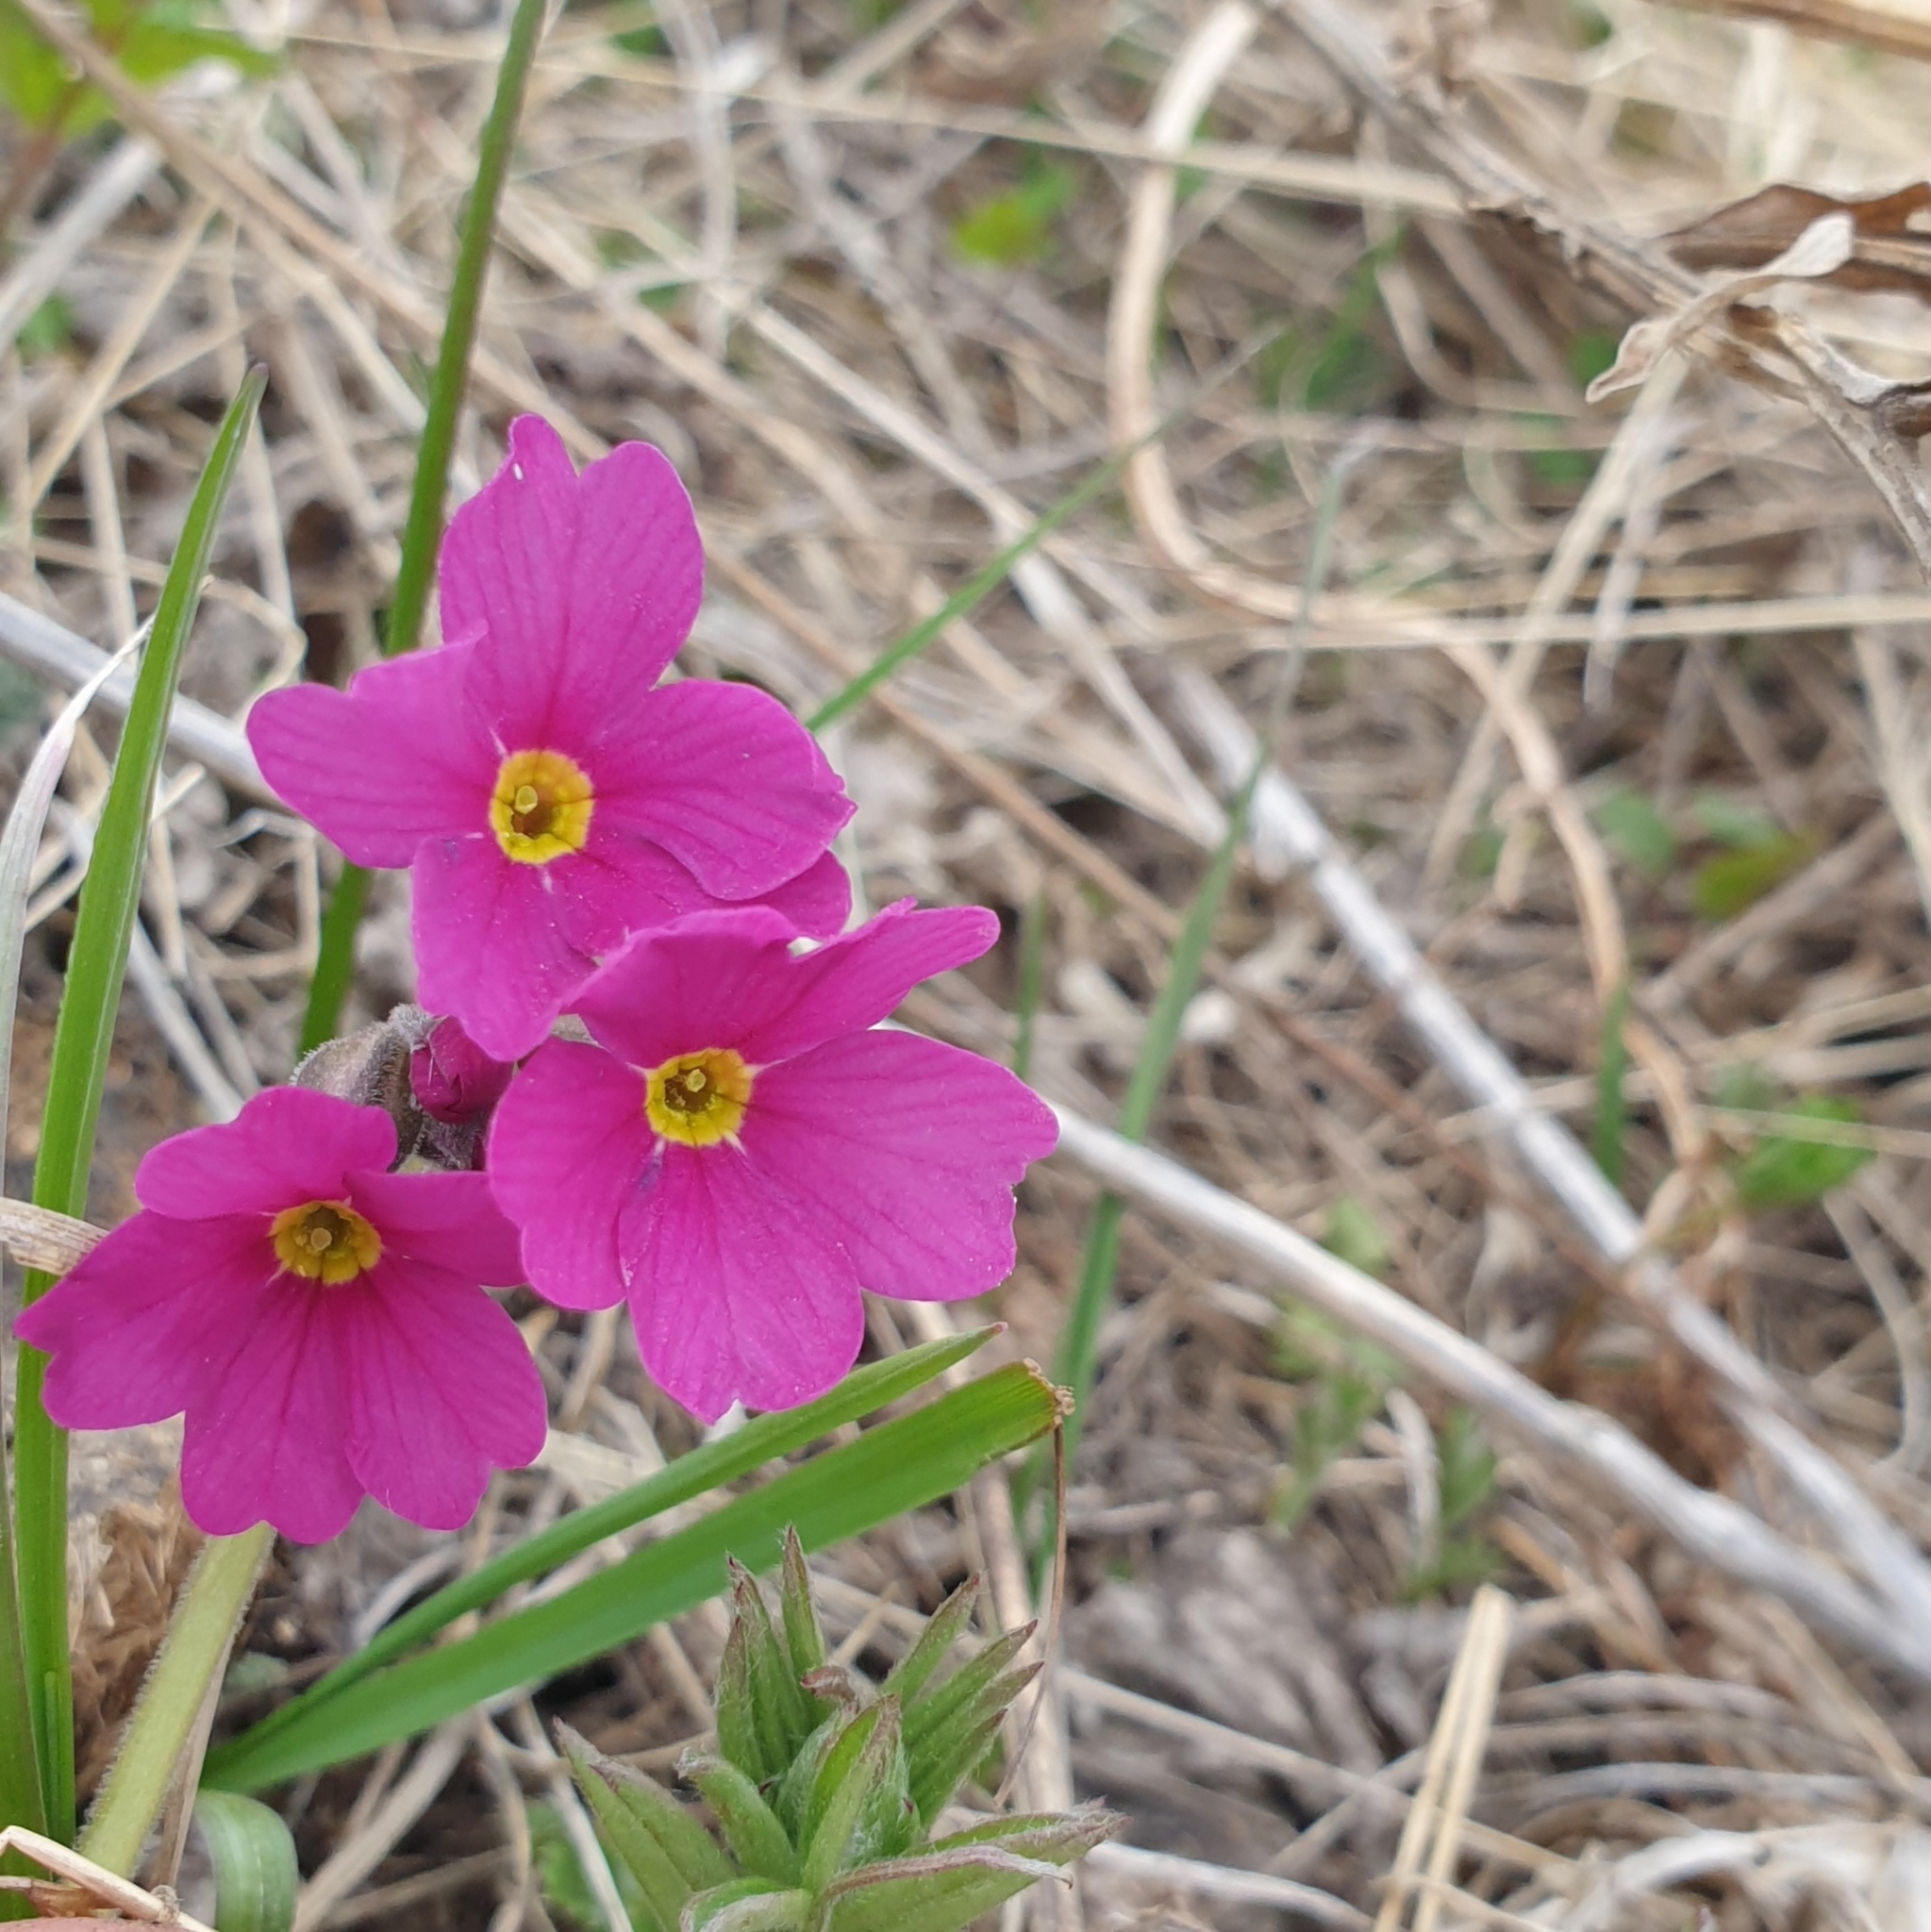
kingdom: Plantae
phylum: Tracheophyta
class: Magnoliopsida
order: Ericales
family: Primulaceae
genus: Primula
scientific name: Primula amoena
